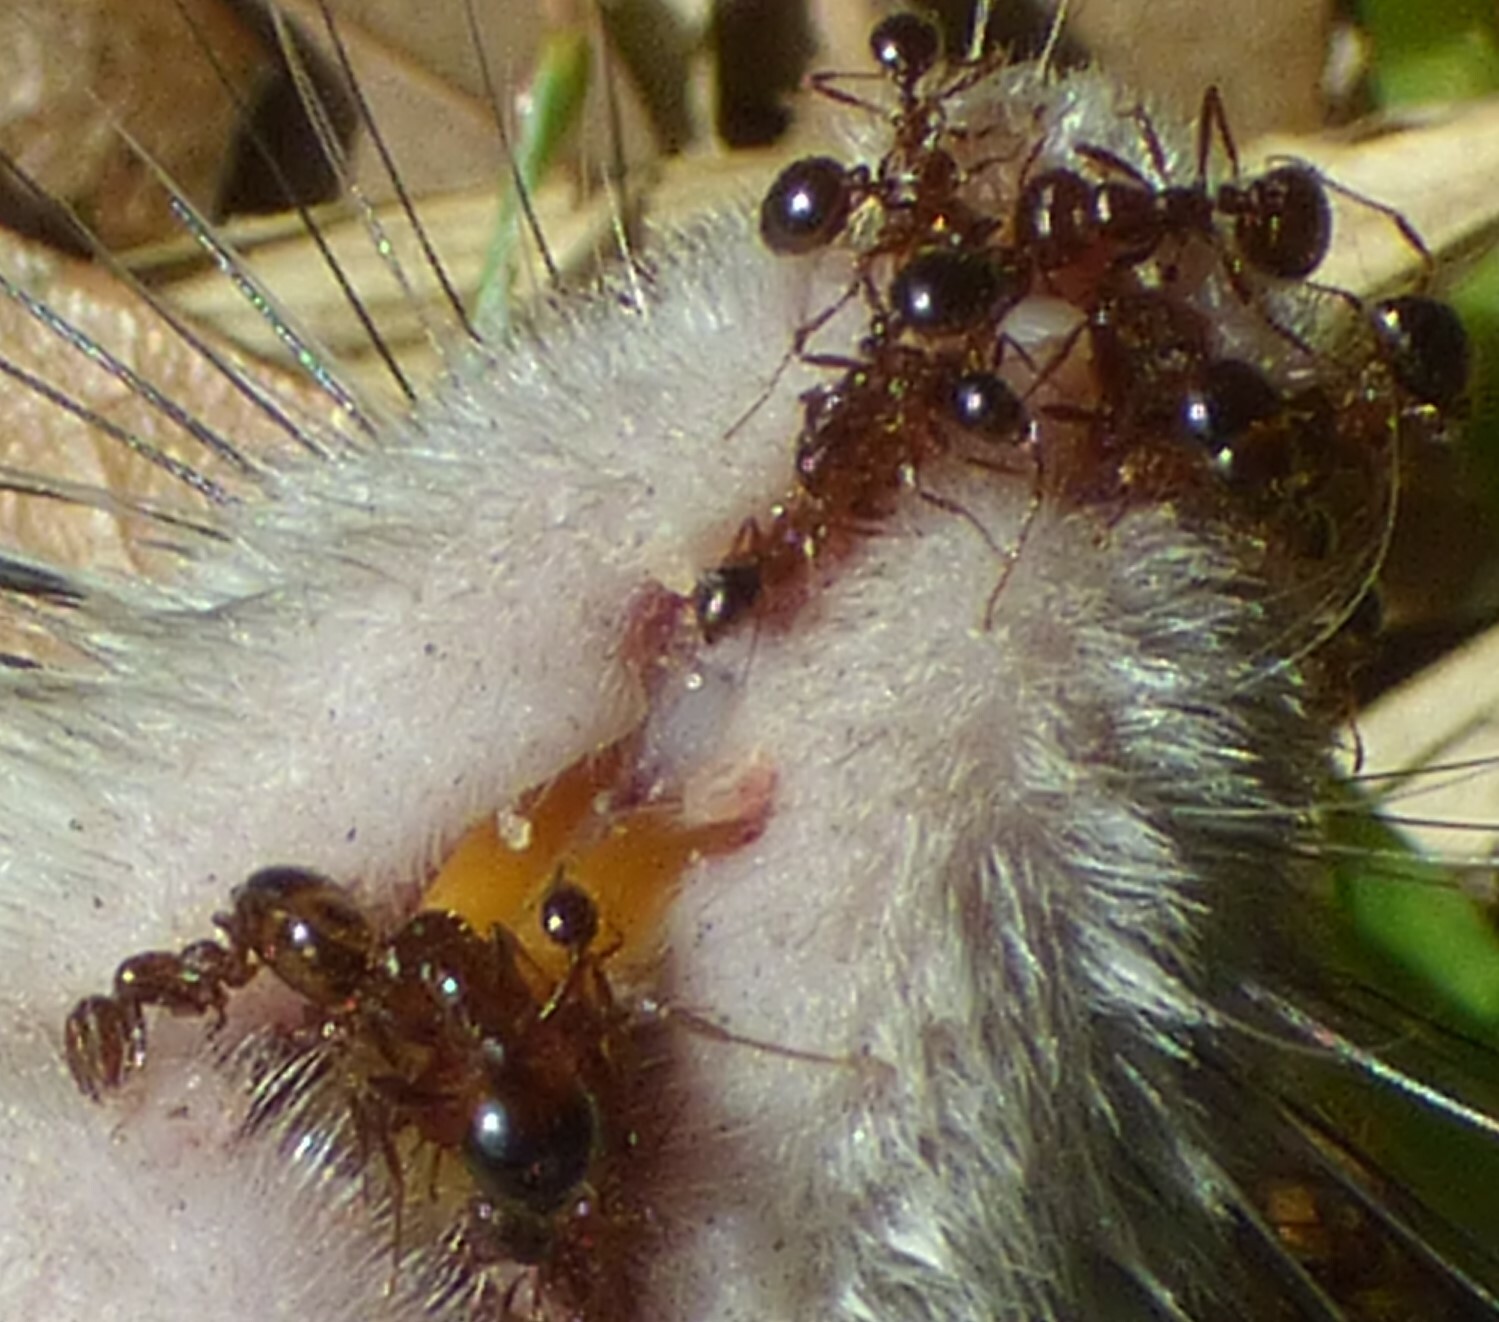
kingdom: Animalia
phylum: Arthropoda
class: Insecta
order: Hymenoptera
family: Formicidae
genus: Solenopsis
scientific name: Solenopsis invicta
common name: Red imported fire ant
